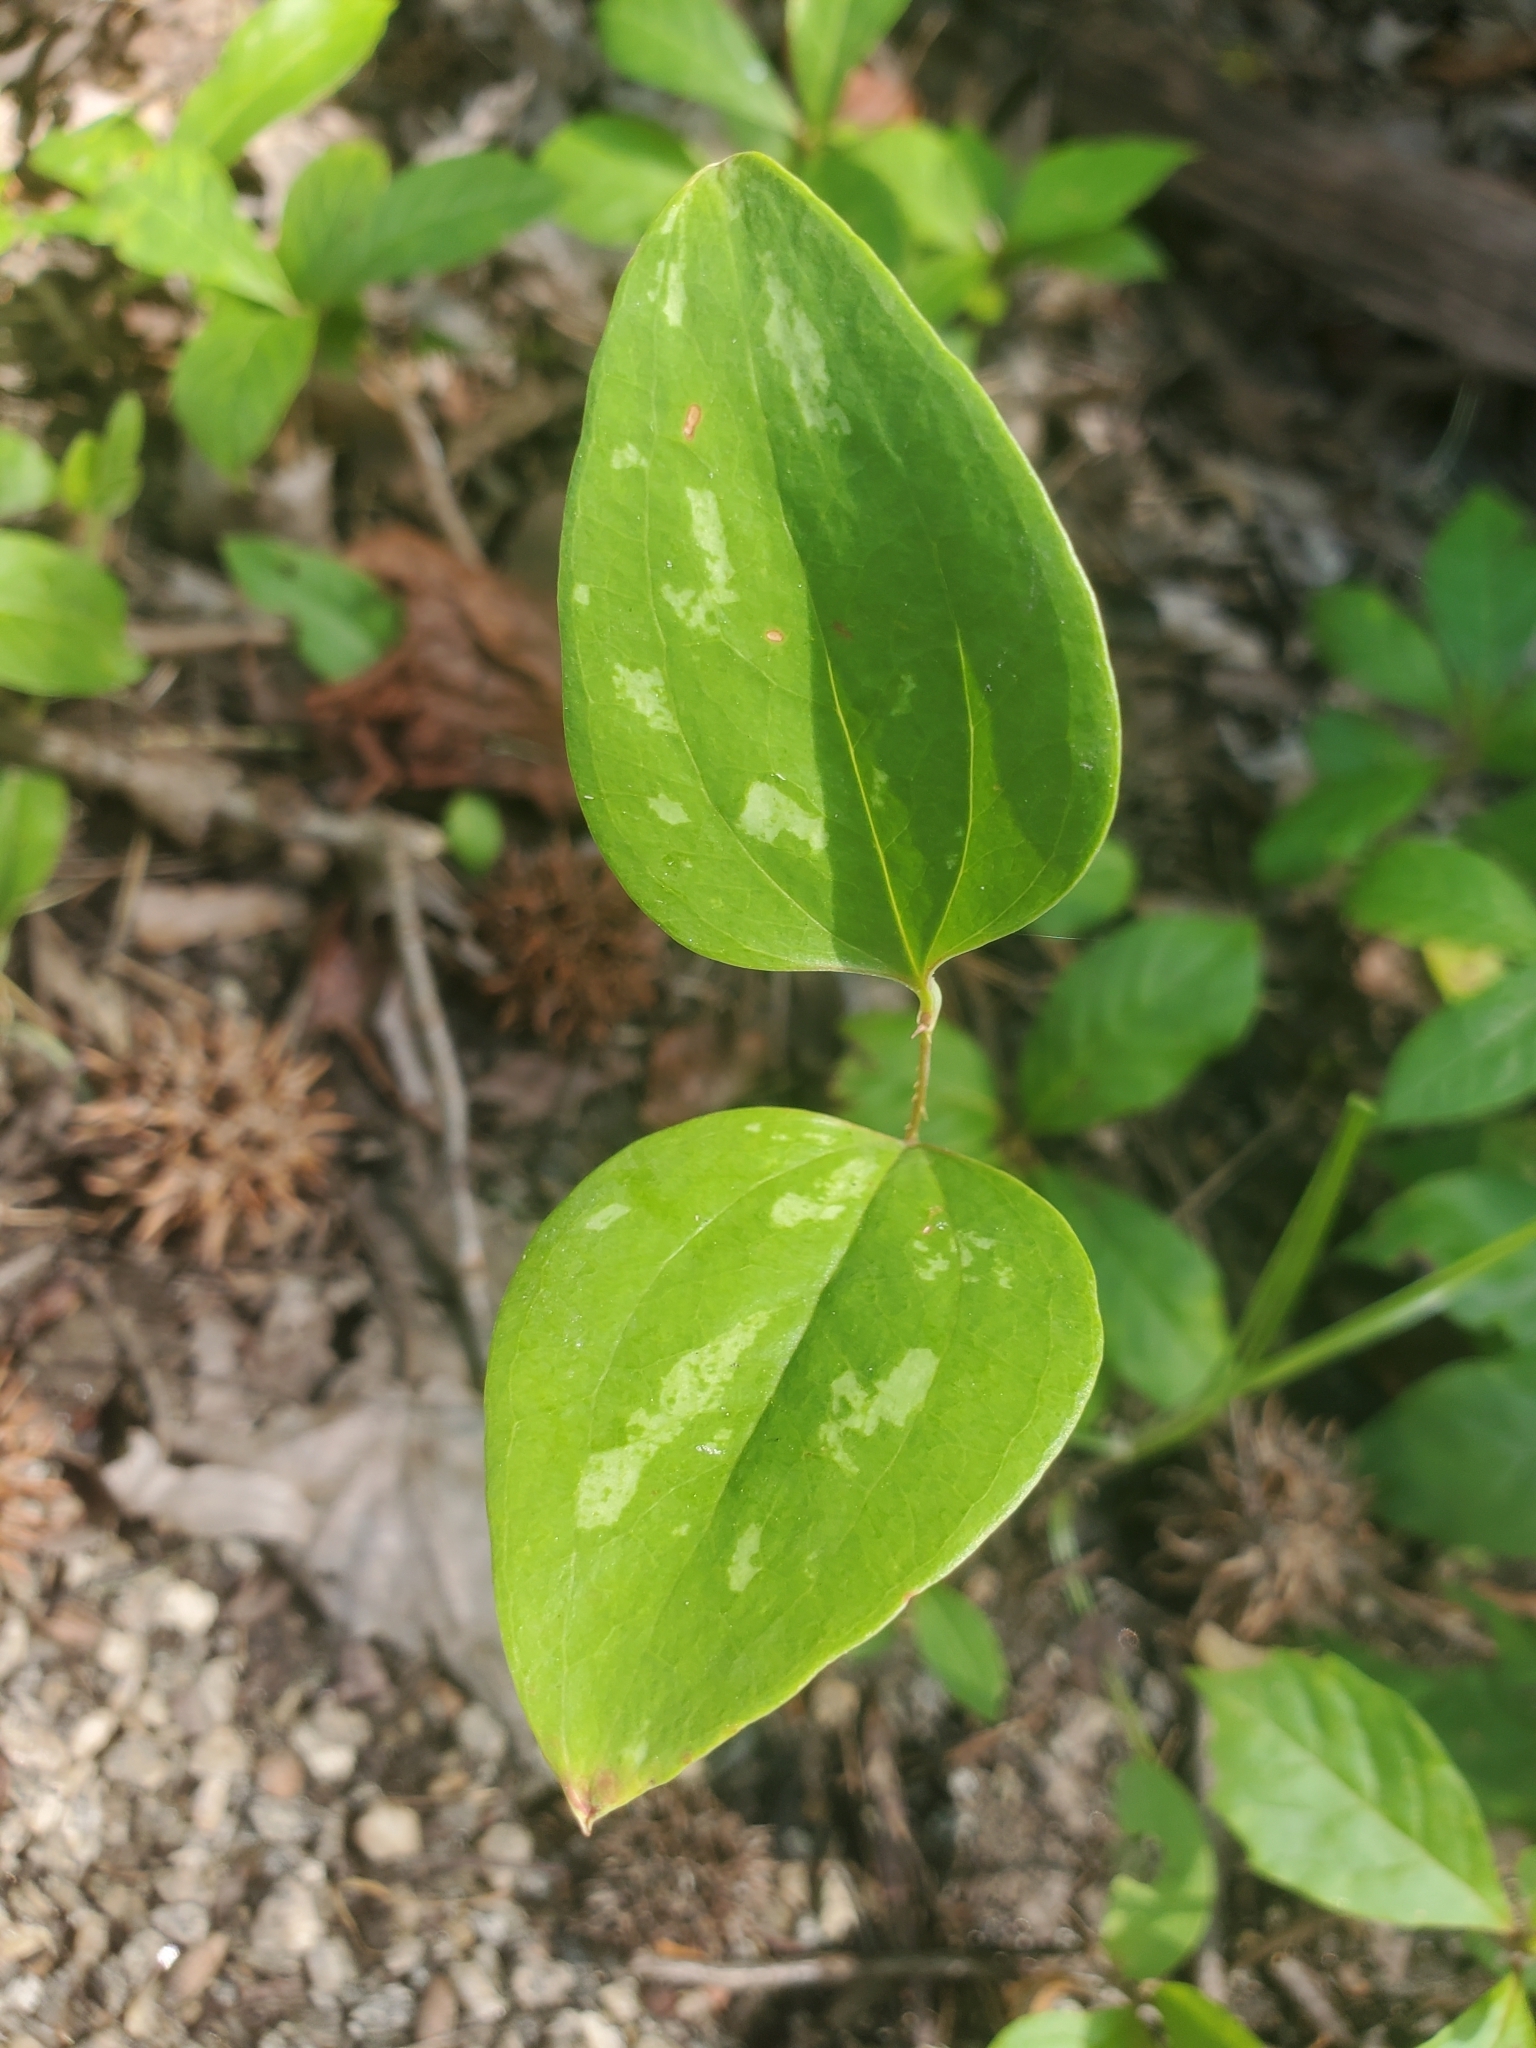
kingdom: Plantae
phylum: Tracheophyta
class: Liliopsida
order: Liliales
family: Smilacaceae
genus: Smilax
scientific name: Smilax glauca
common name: Cat greenbrier
